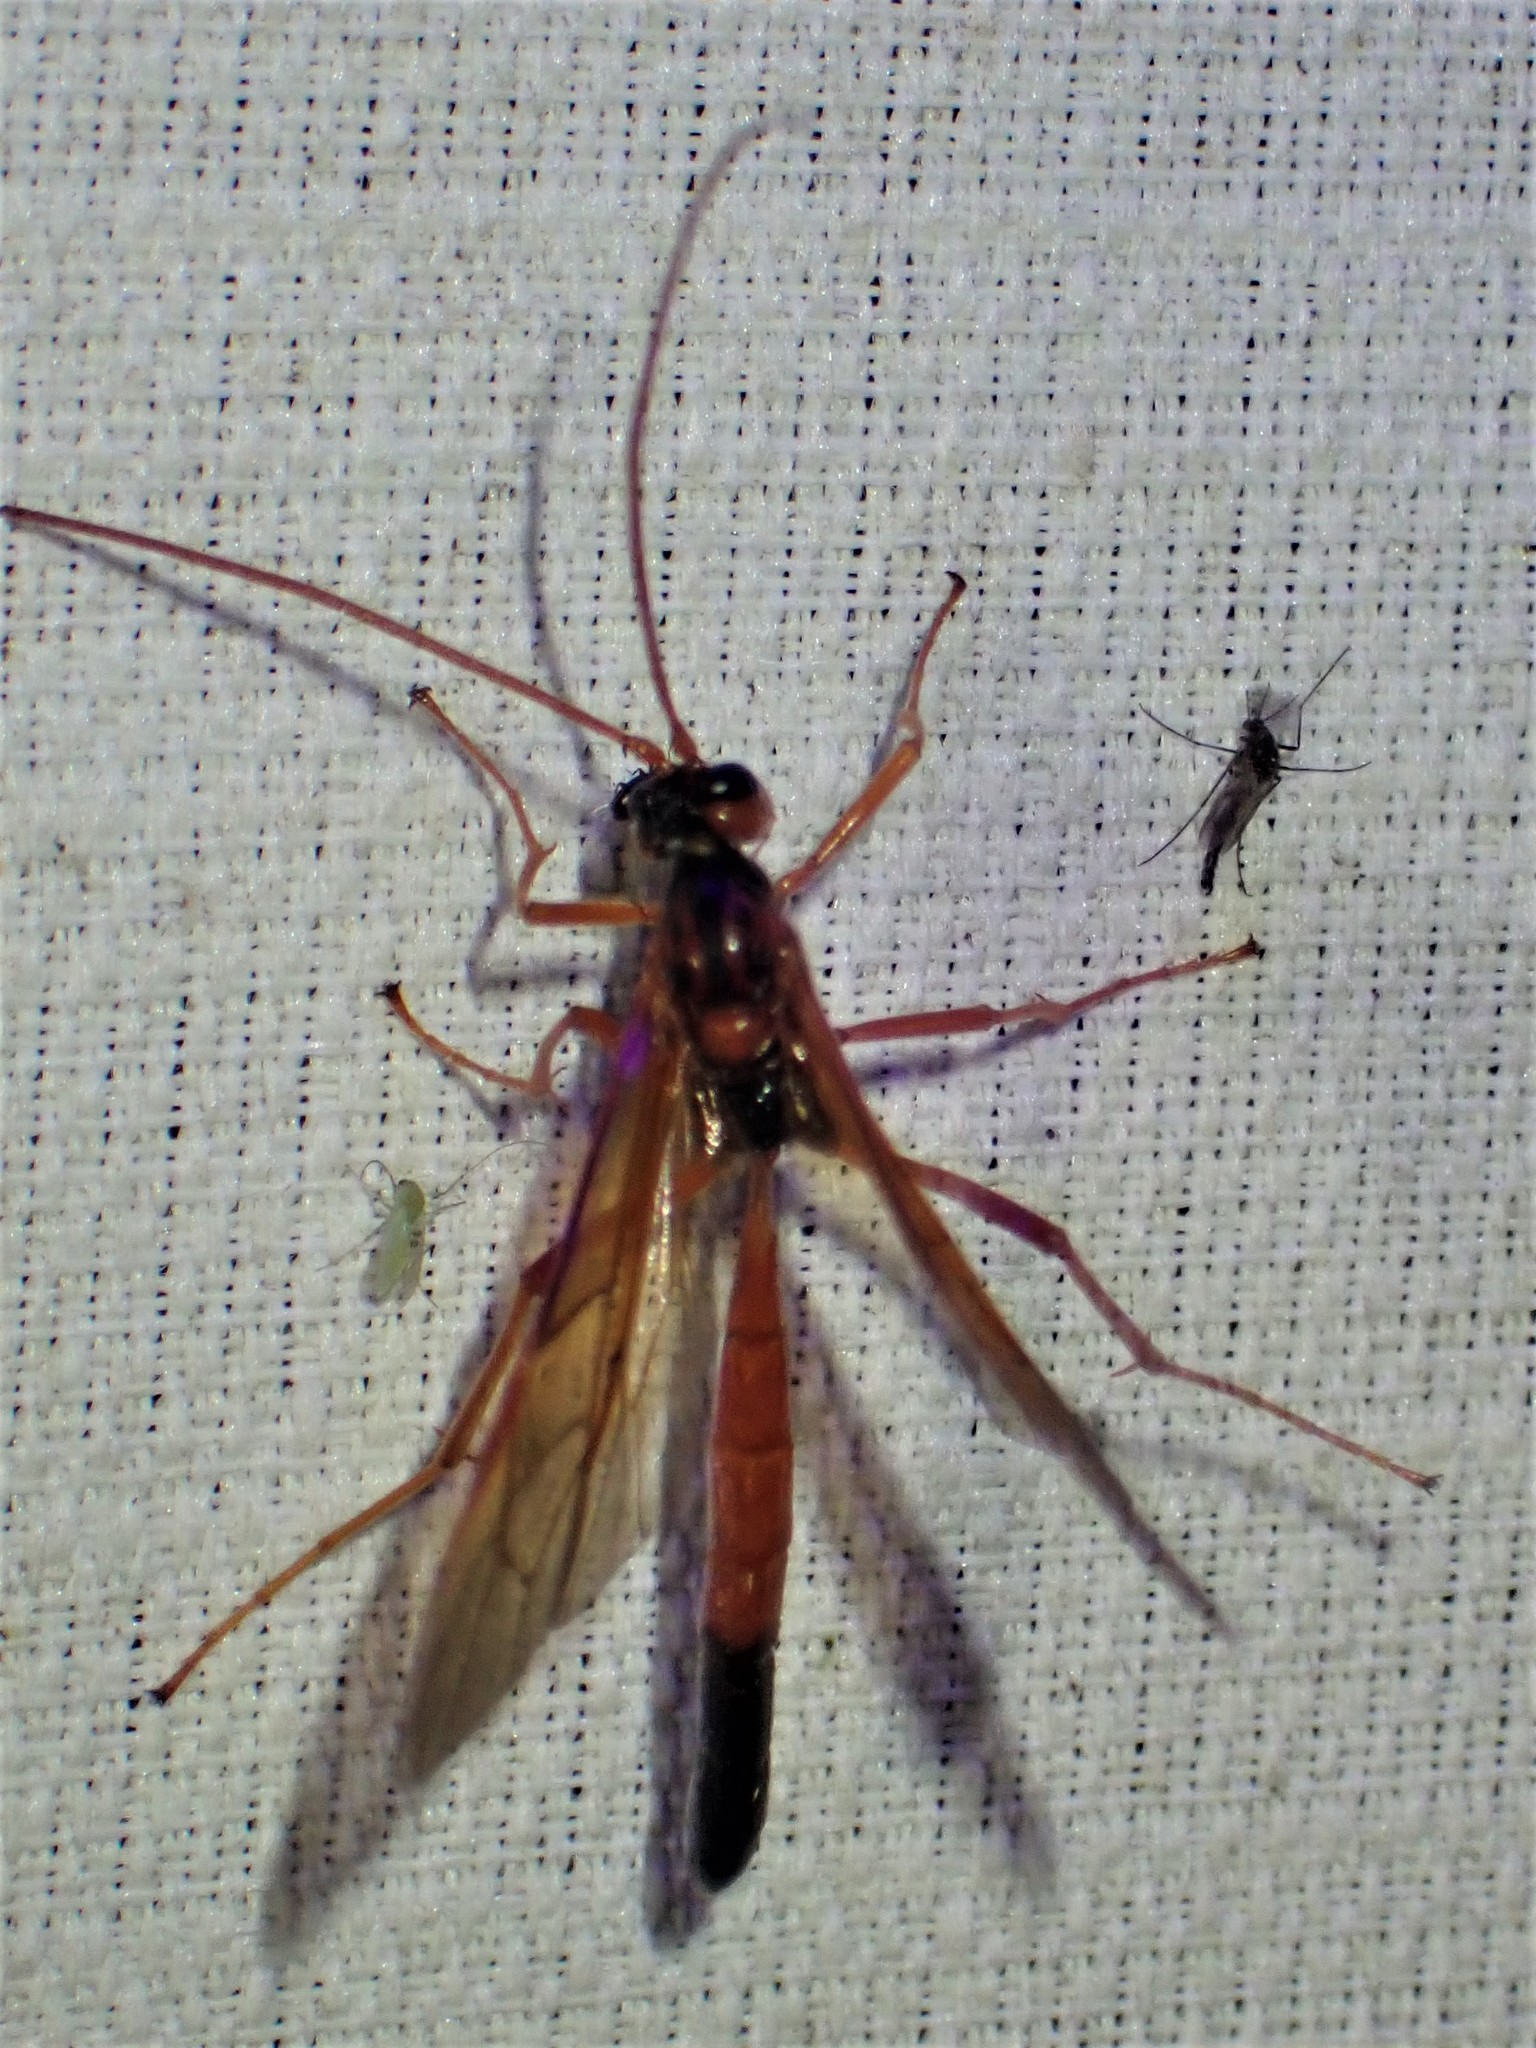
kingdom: Animalia
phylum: Arthropoda
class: Insecta
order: Hymenoptera
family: Ichneumonidae
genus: Opheltes
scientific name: Opheltes glaucopterus
